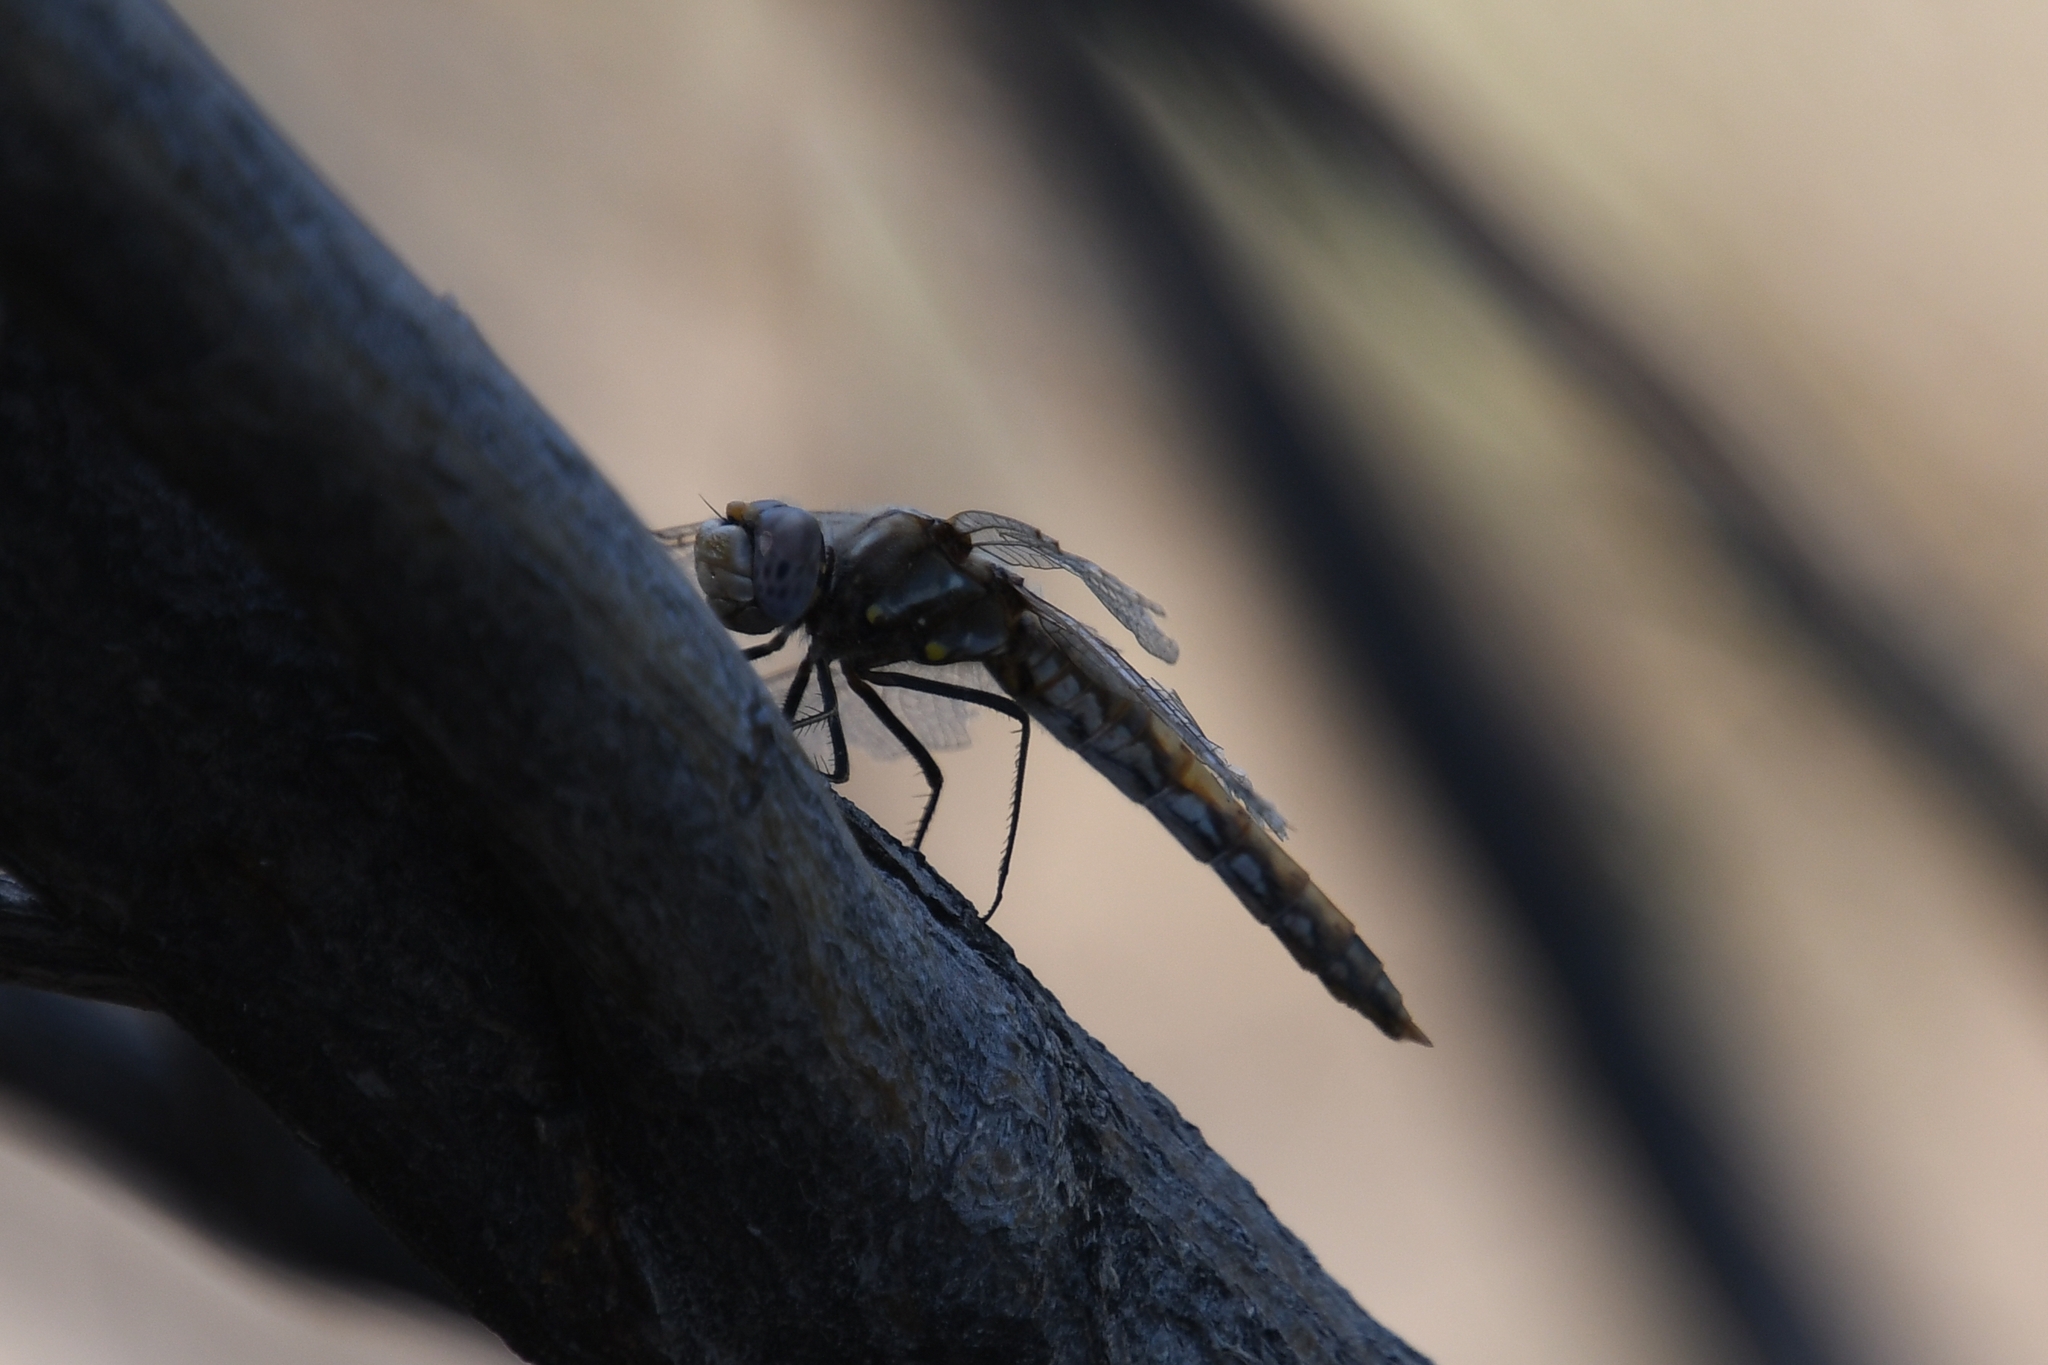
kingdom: Animalia
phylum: Arthropoda
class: Insecta
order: Odonata
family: Libellulidae
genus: Sympetrum
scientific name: Sympetrum corruptum
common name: Variegated meadowhawk
